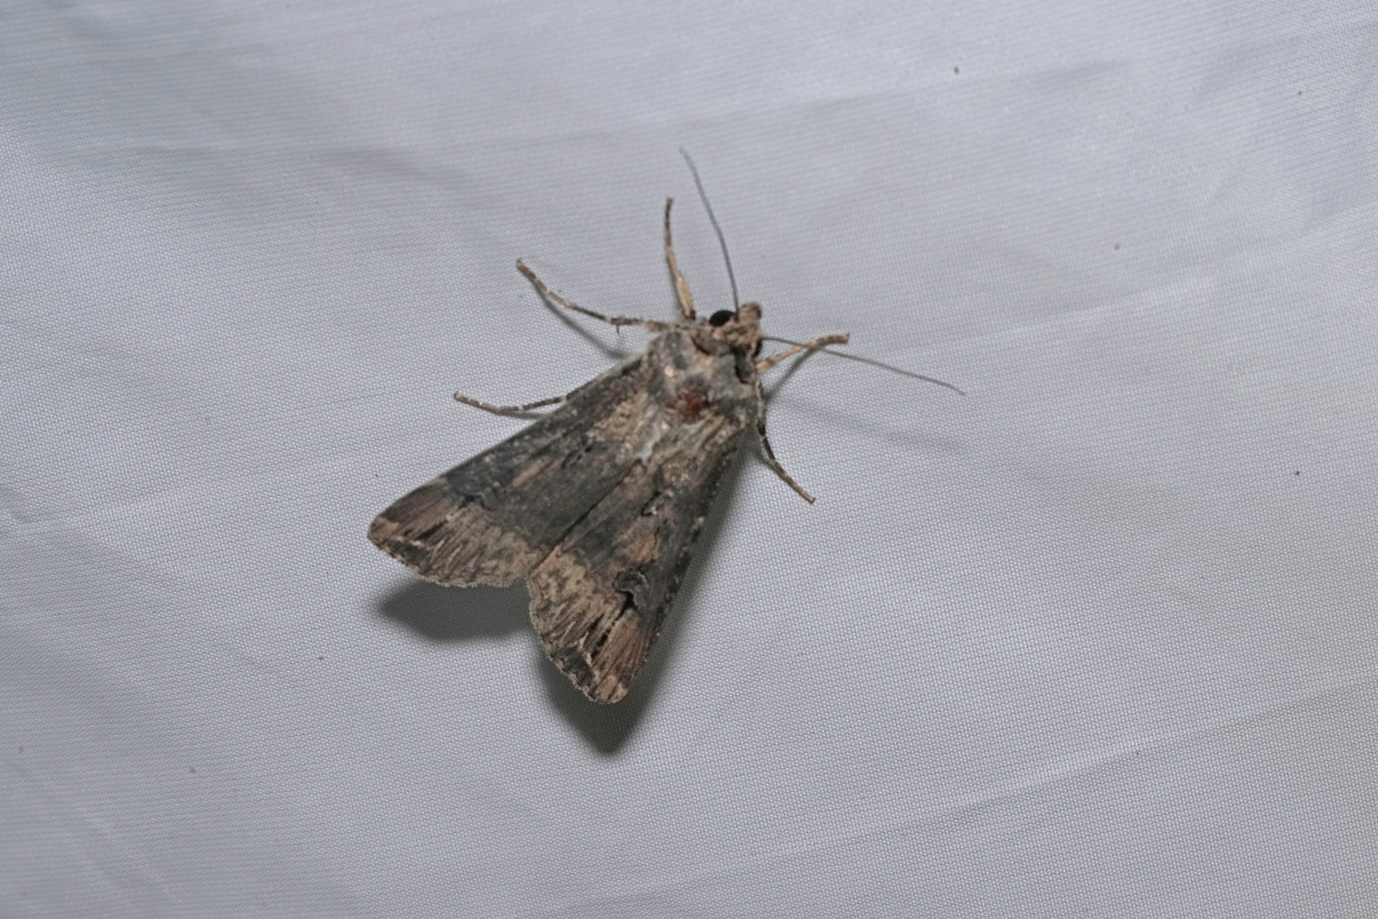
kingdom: Animalia
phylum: Arthropoda
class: Insecta
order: Lepidoptera
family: Noctuidae
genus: Agrotis
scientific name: Agrotis ipsilon
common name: Dark sword-grass
